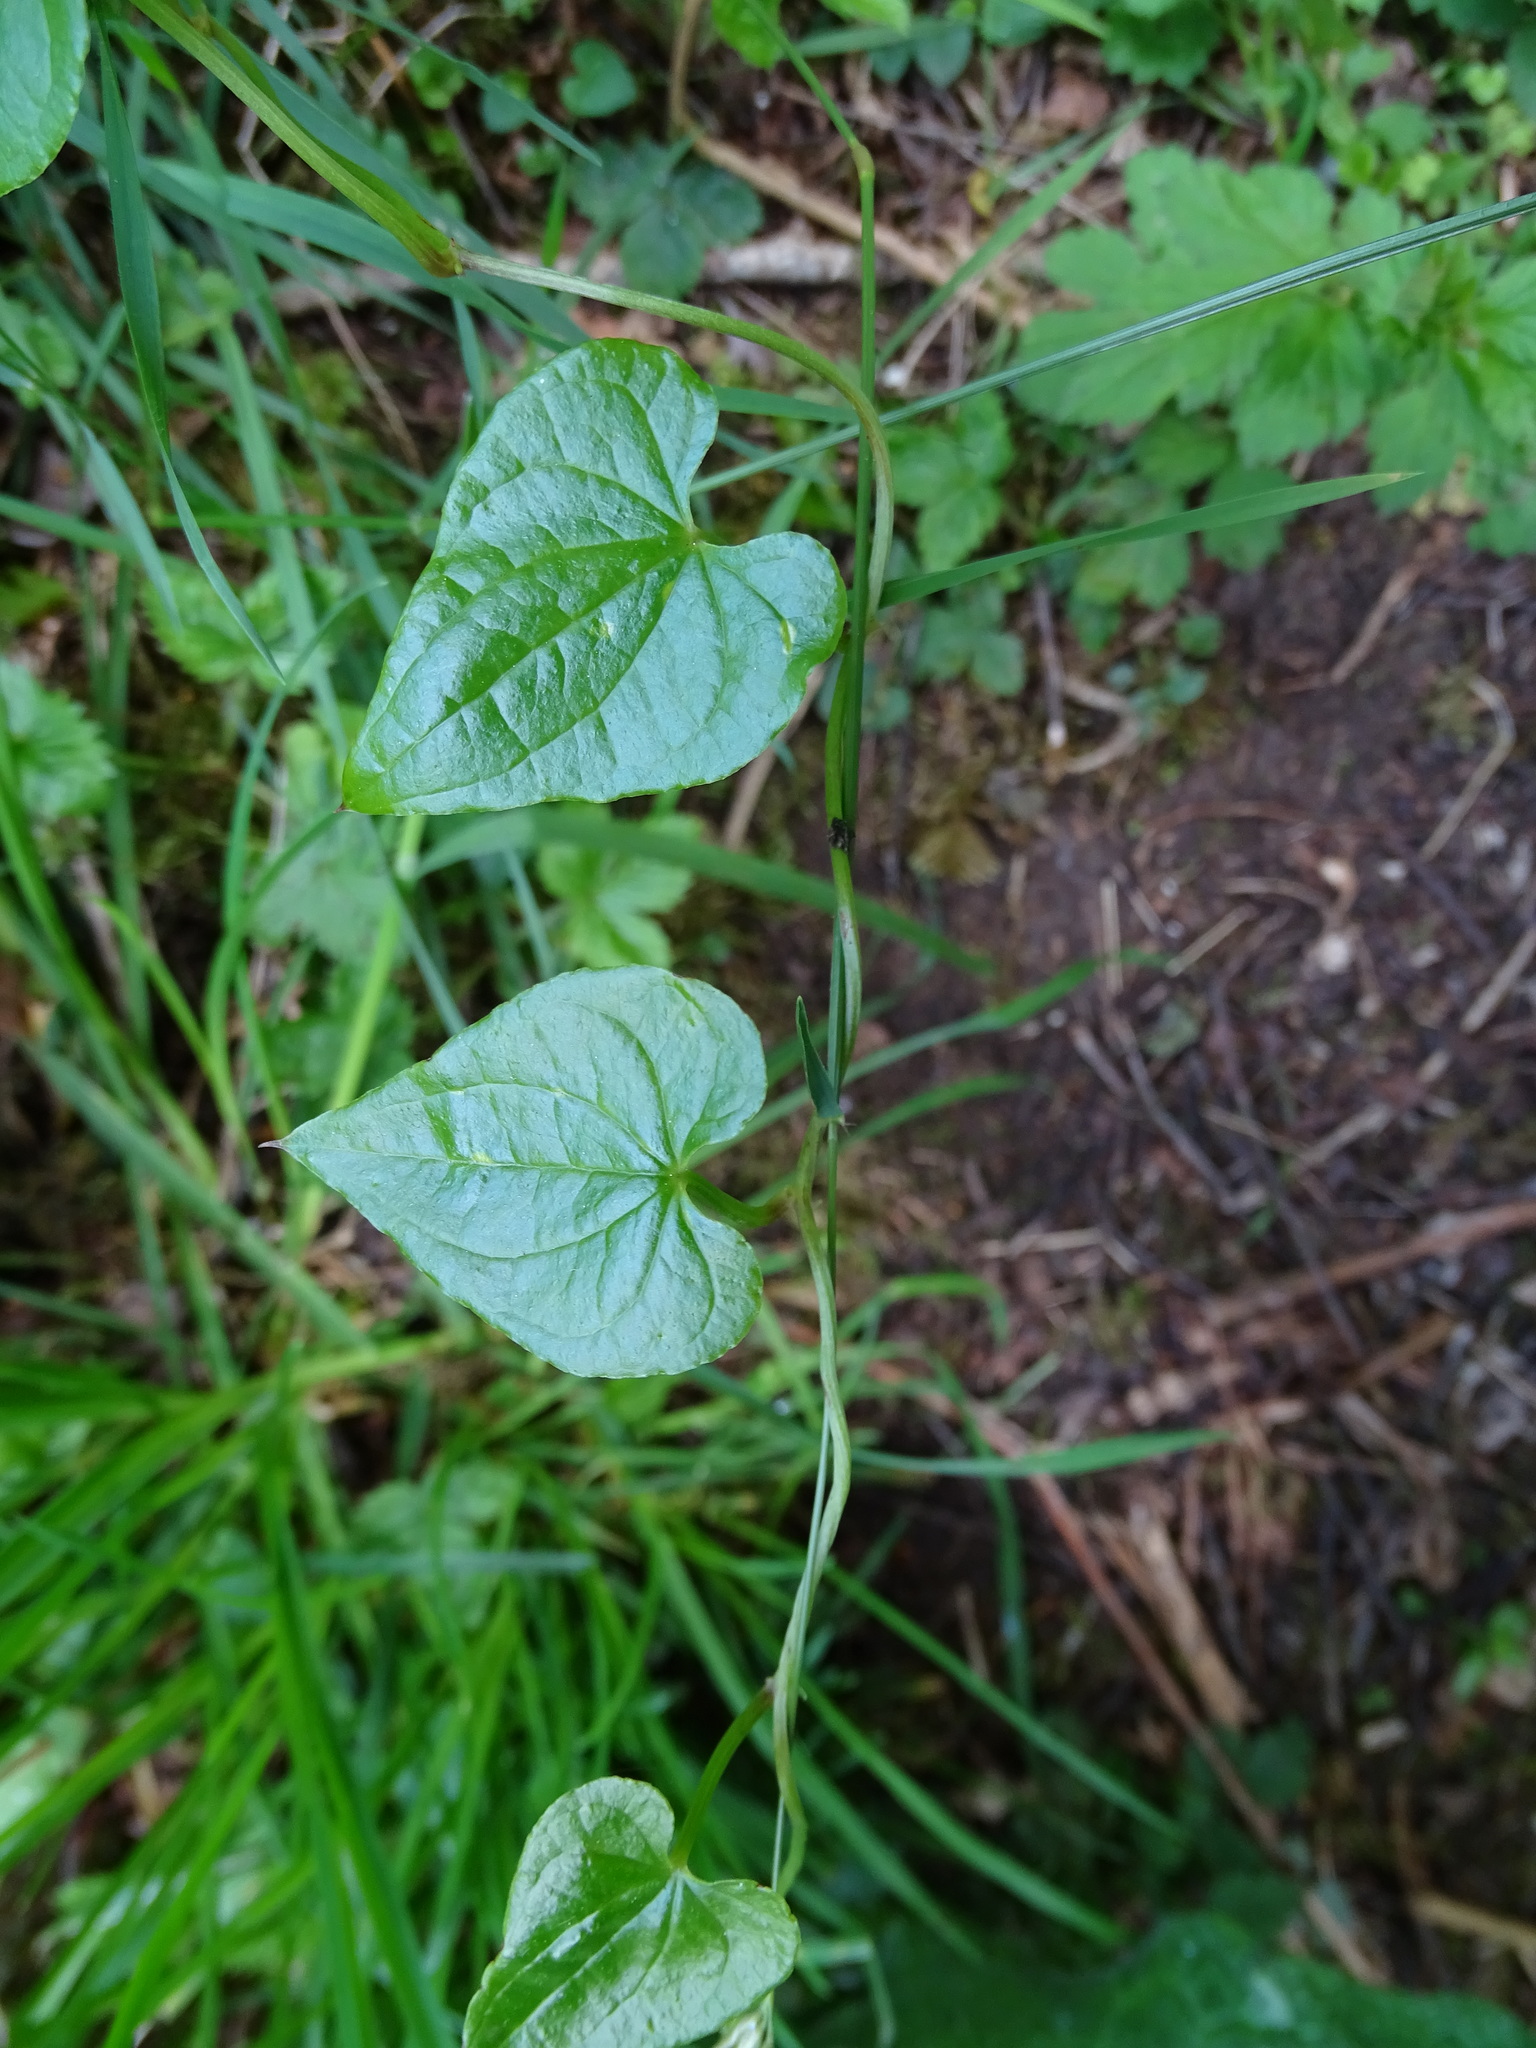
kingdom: Plantae
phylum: Tracheophyta
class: Liliopsida
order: Dioscoreales
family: Dioscoreaceae
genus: Dioscorea
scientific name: Dioscorea communis
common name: Black-bindweed
